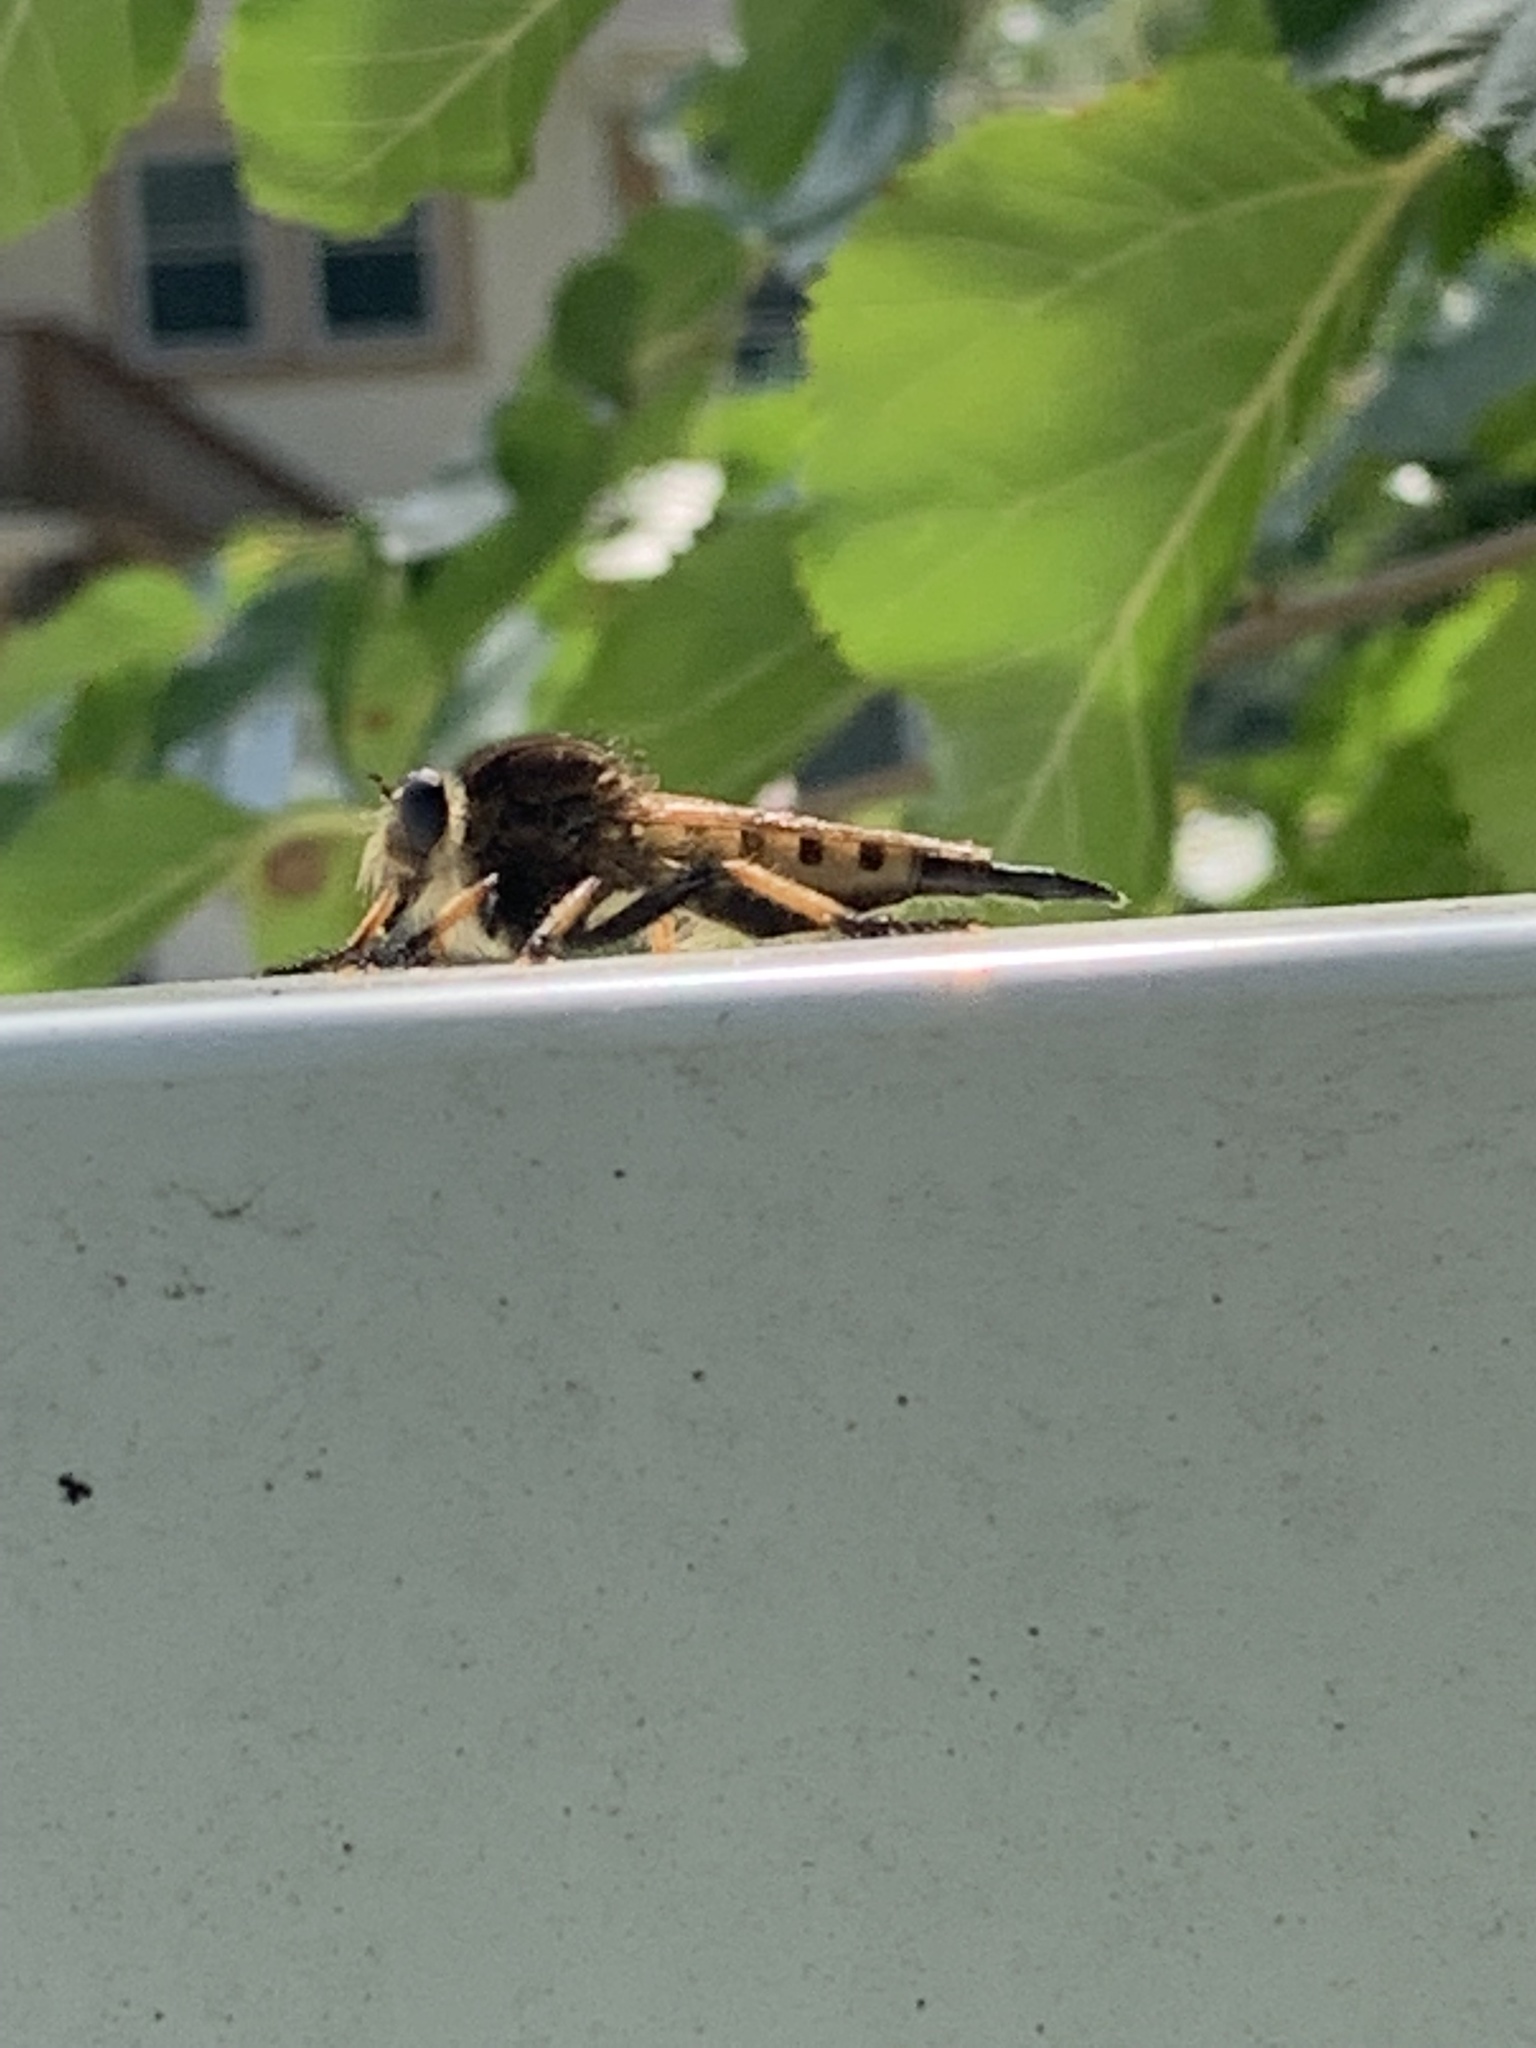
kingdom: Animalia
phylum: Arthropoda
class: Insecta
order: Diptera
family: Asilidae
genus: Promachus
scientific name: Promachus rufipes
